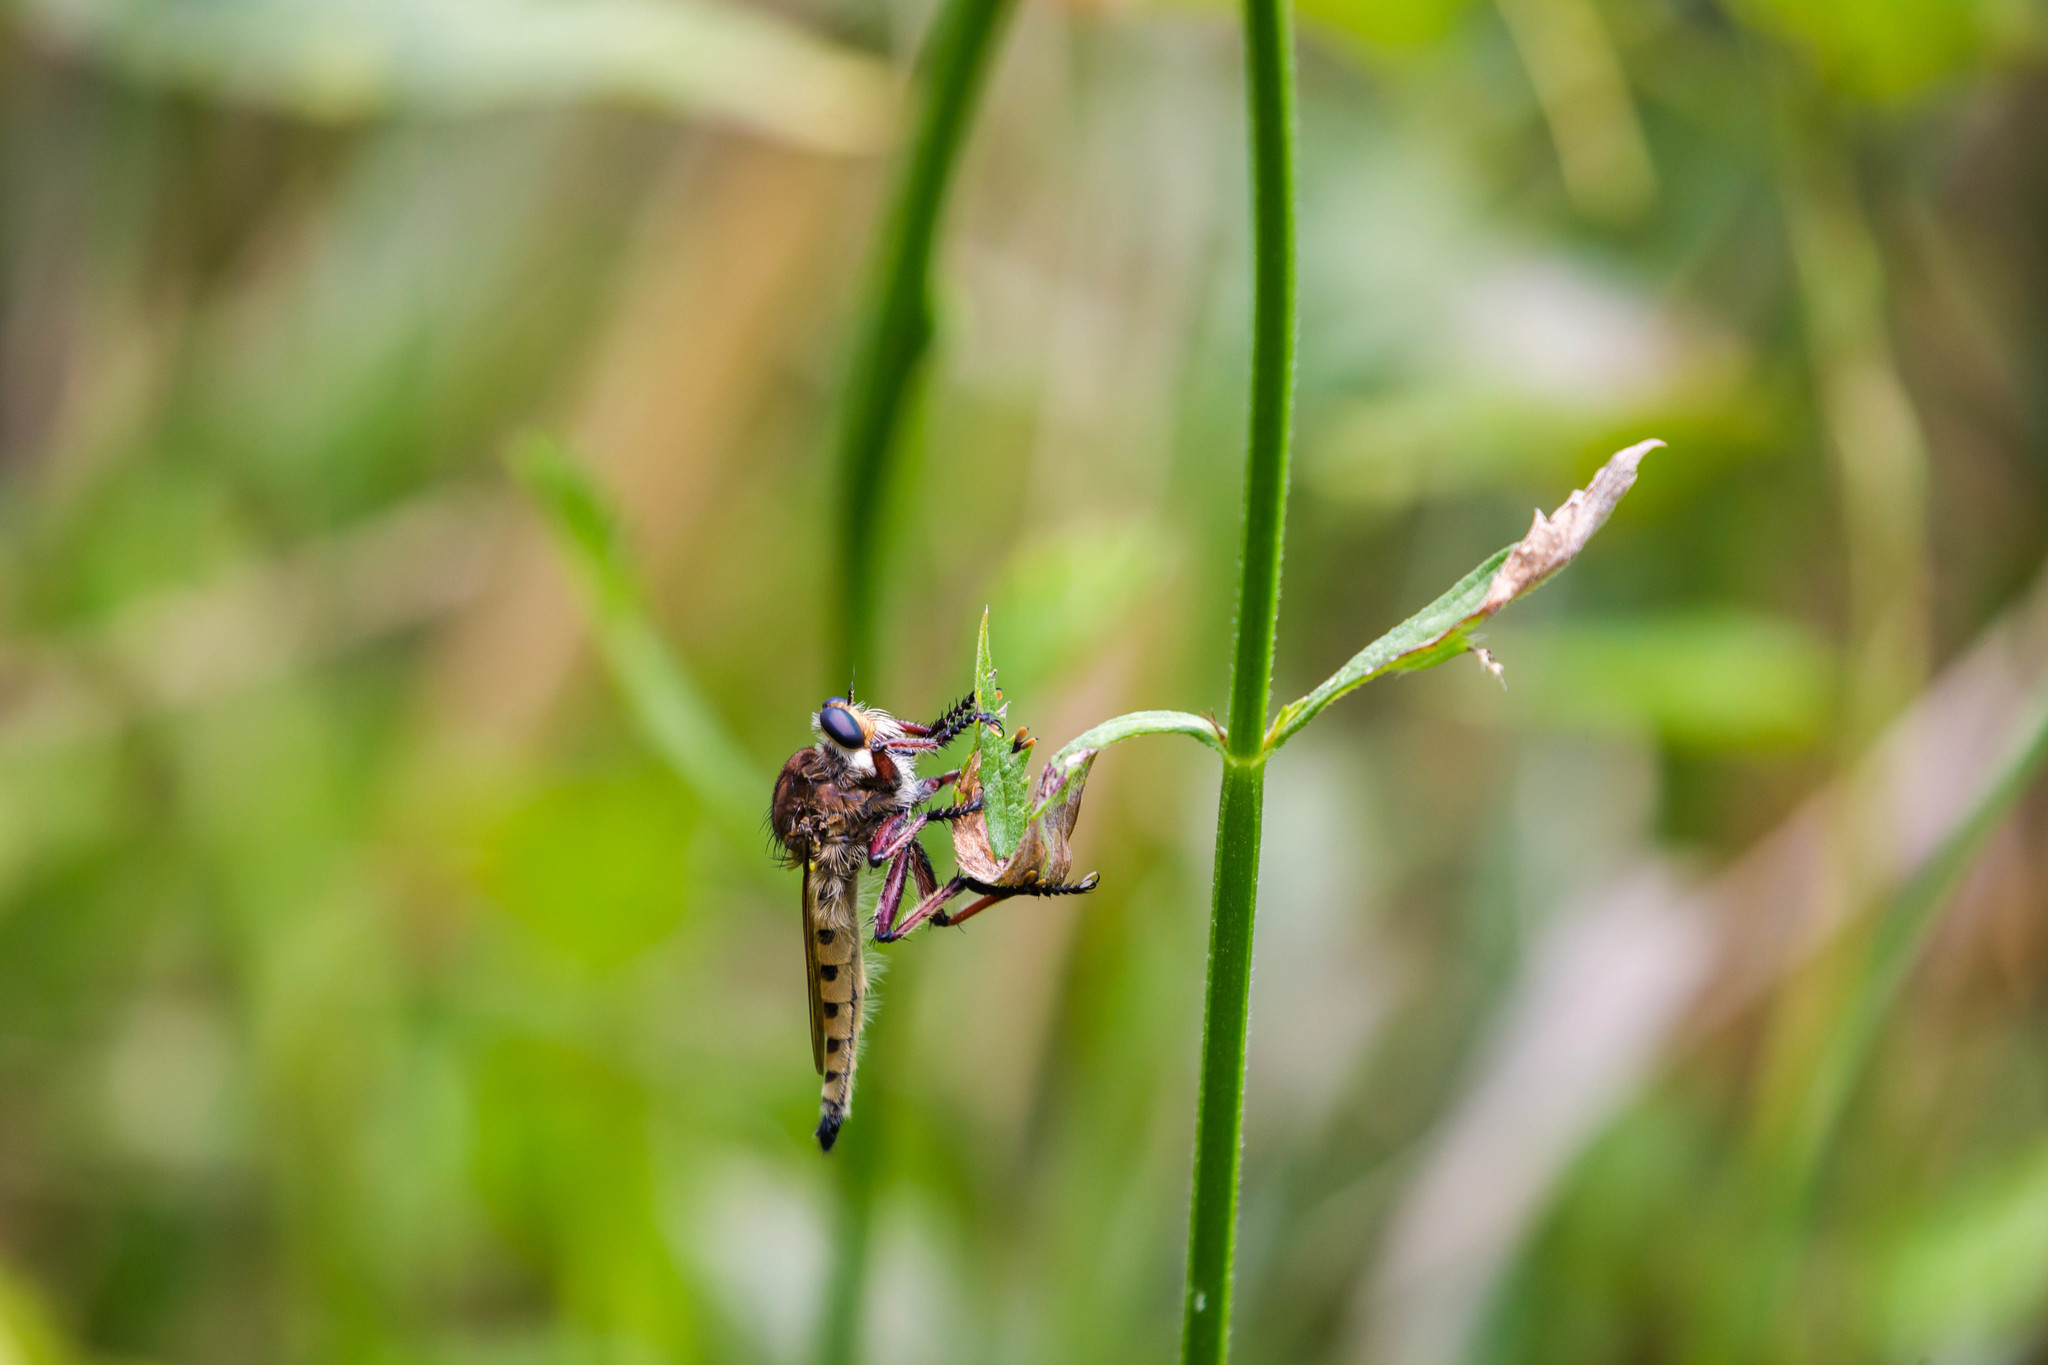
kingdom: Animalia
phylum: Arthropoda
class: Insecta
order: Diptera
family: Asilidae
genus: Promachus
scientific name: Promachus hinei
